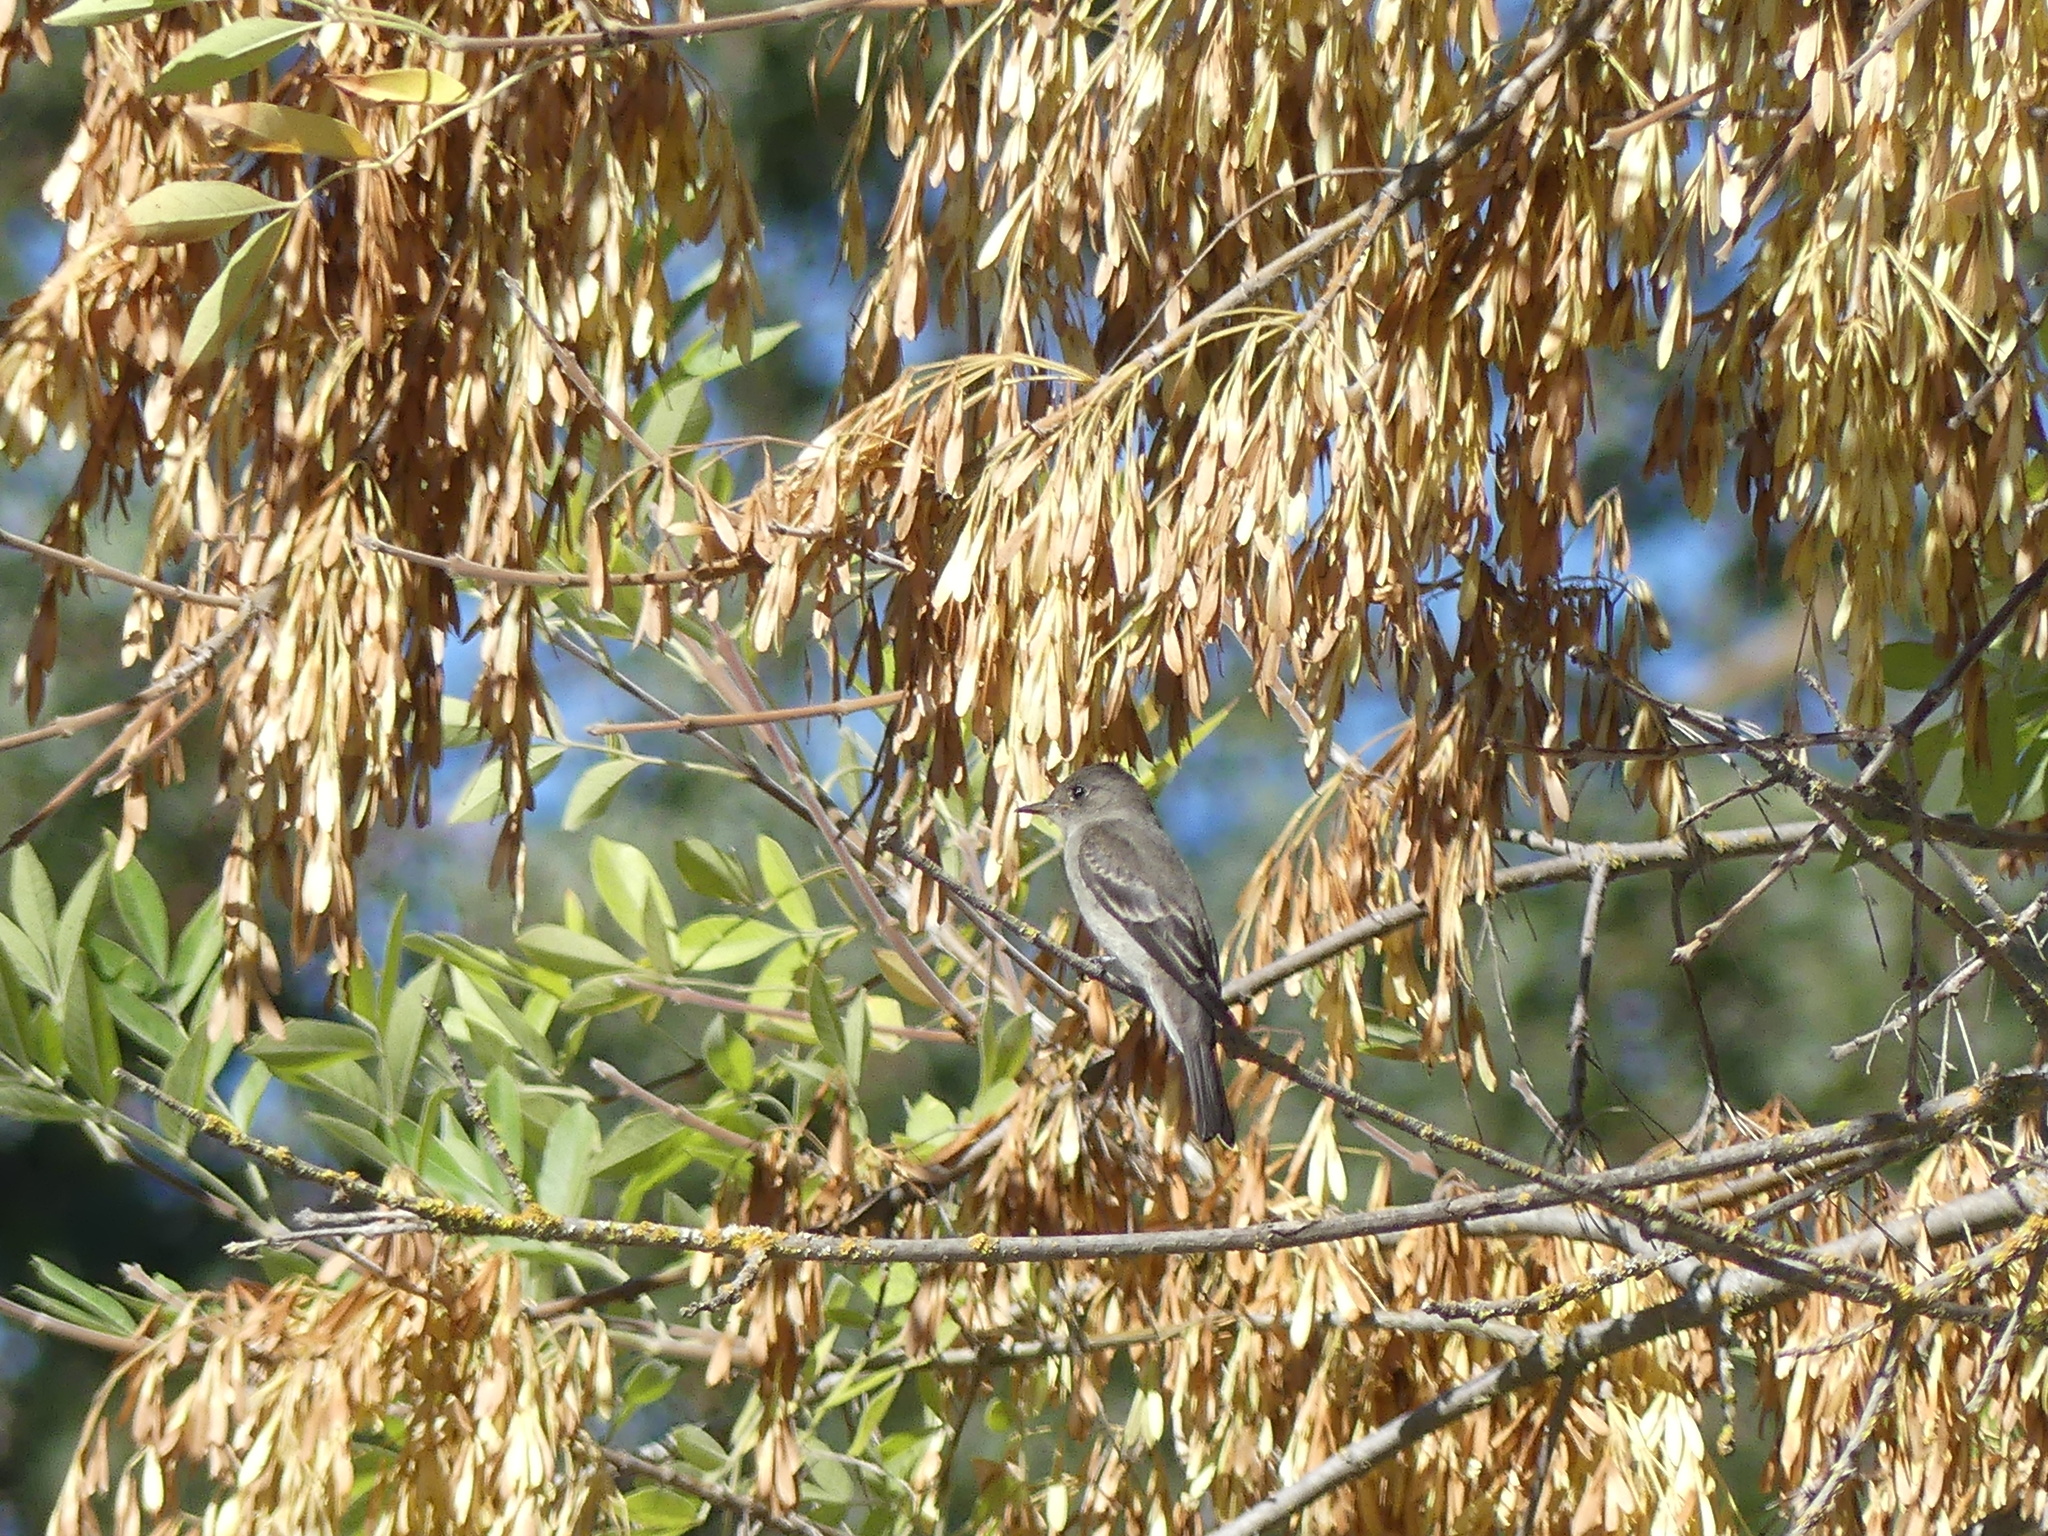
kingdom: Animalia
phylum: Chordata
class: Aves
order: Passeriformes
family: Tyrannidae
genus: Contopus
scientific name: Contopus sordidulus
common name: Western wood-pewee
